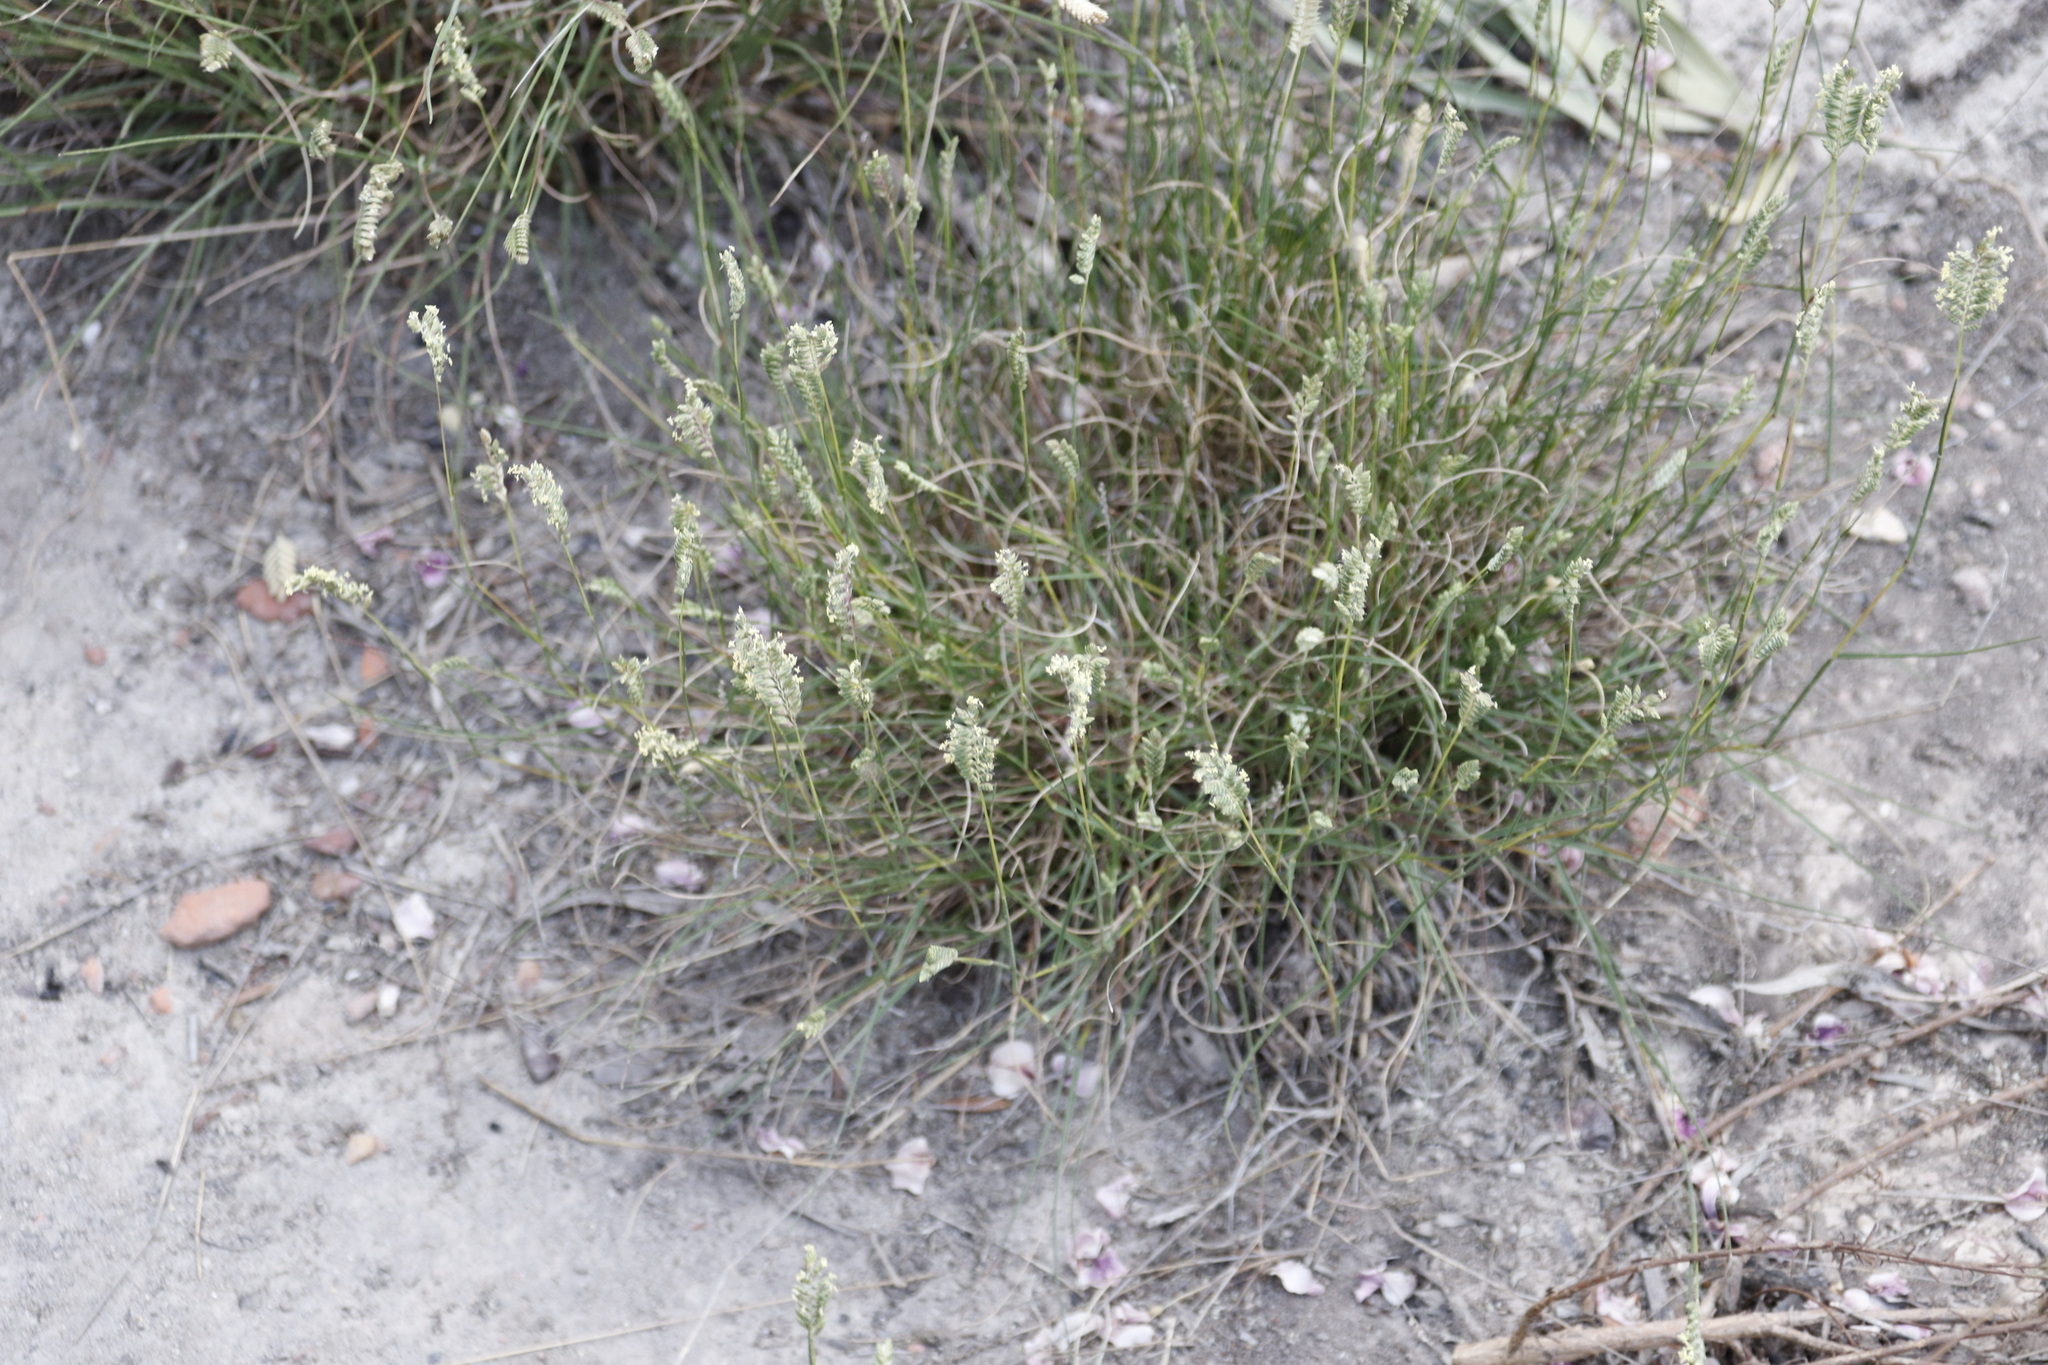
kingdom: Plantae
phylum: Tracheophyta
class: Liliopsida
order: Poales
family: Poaceae
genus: Tribolium
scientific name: Tribolium uniolae
